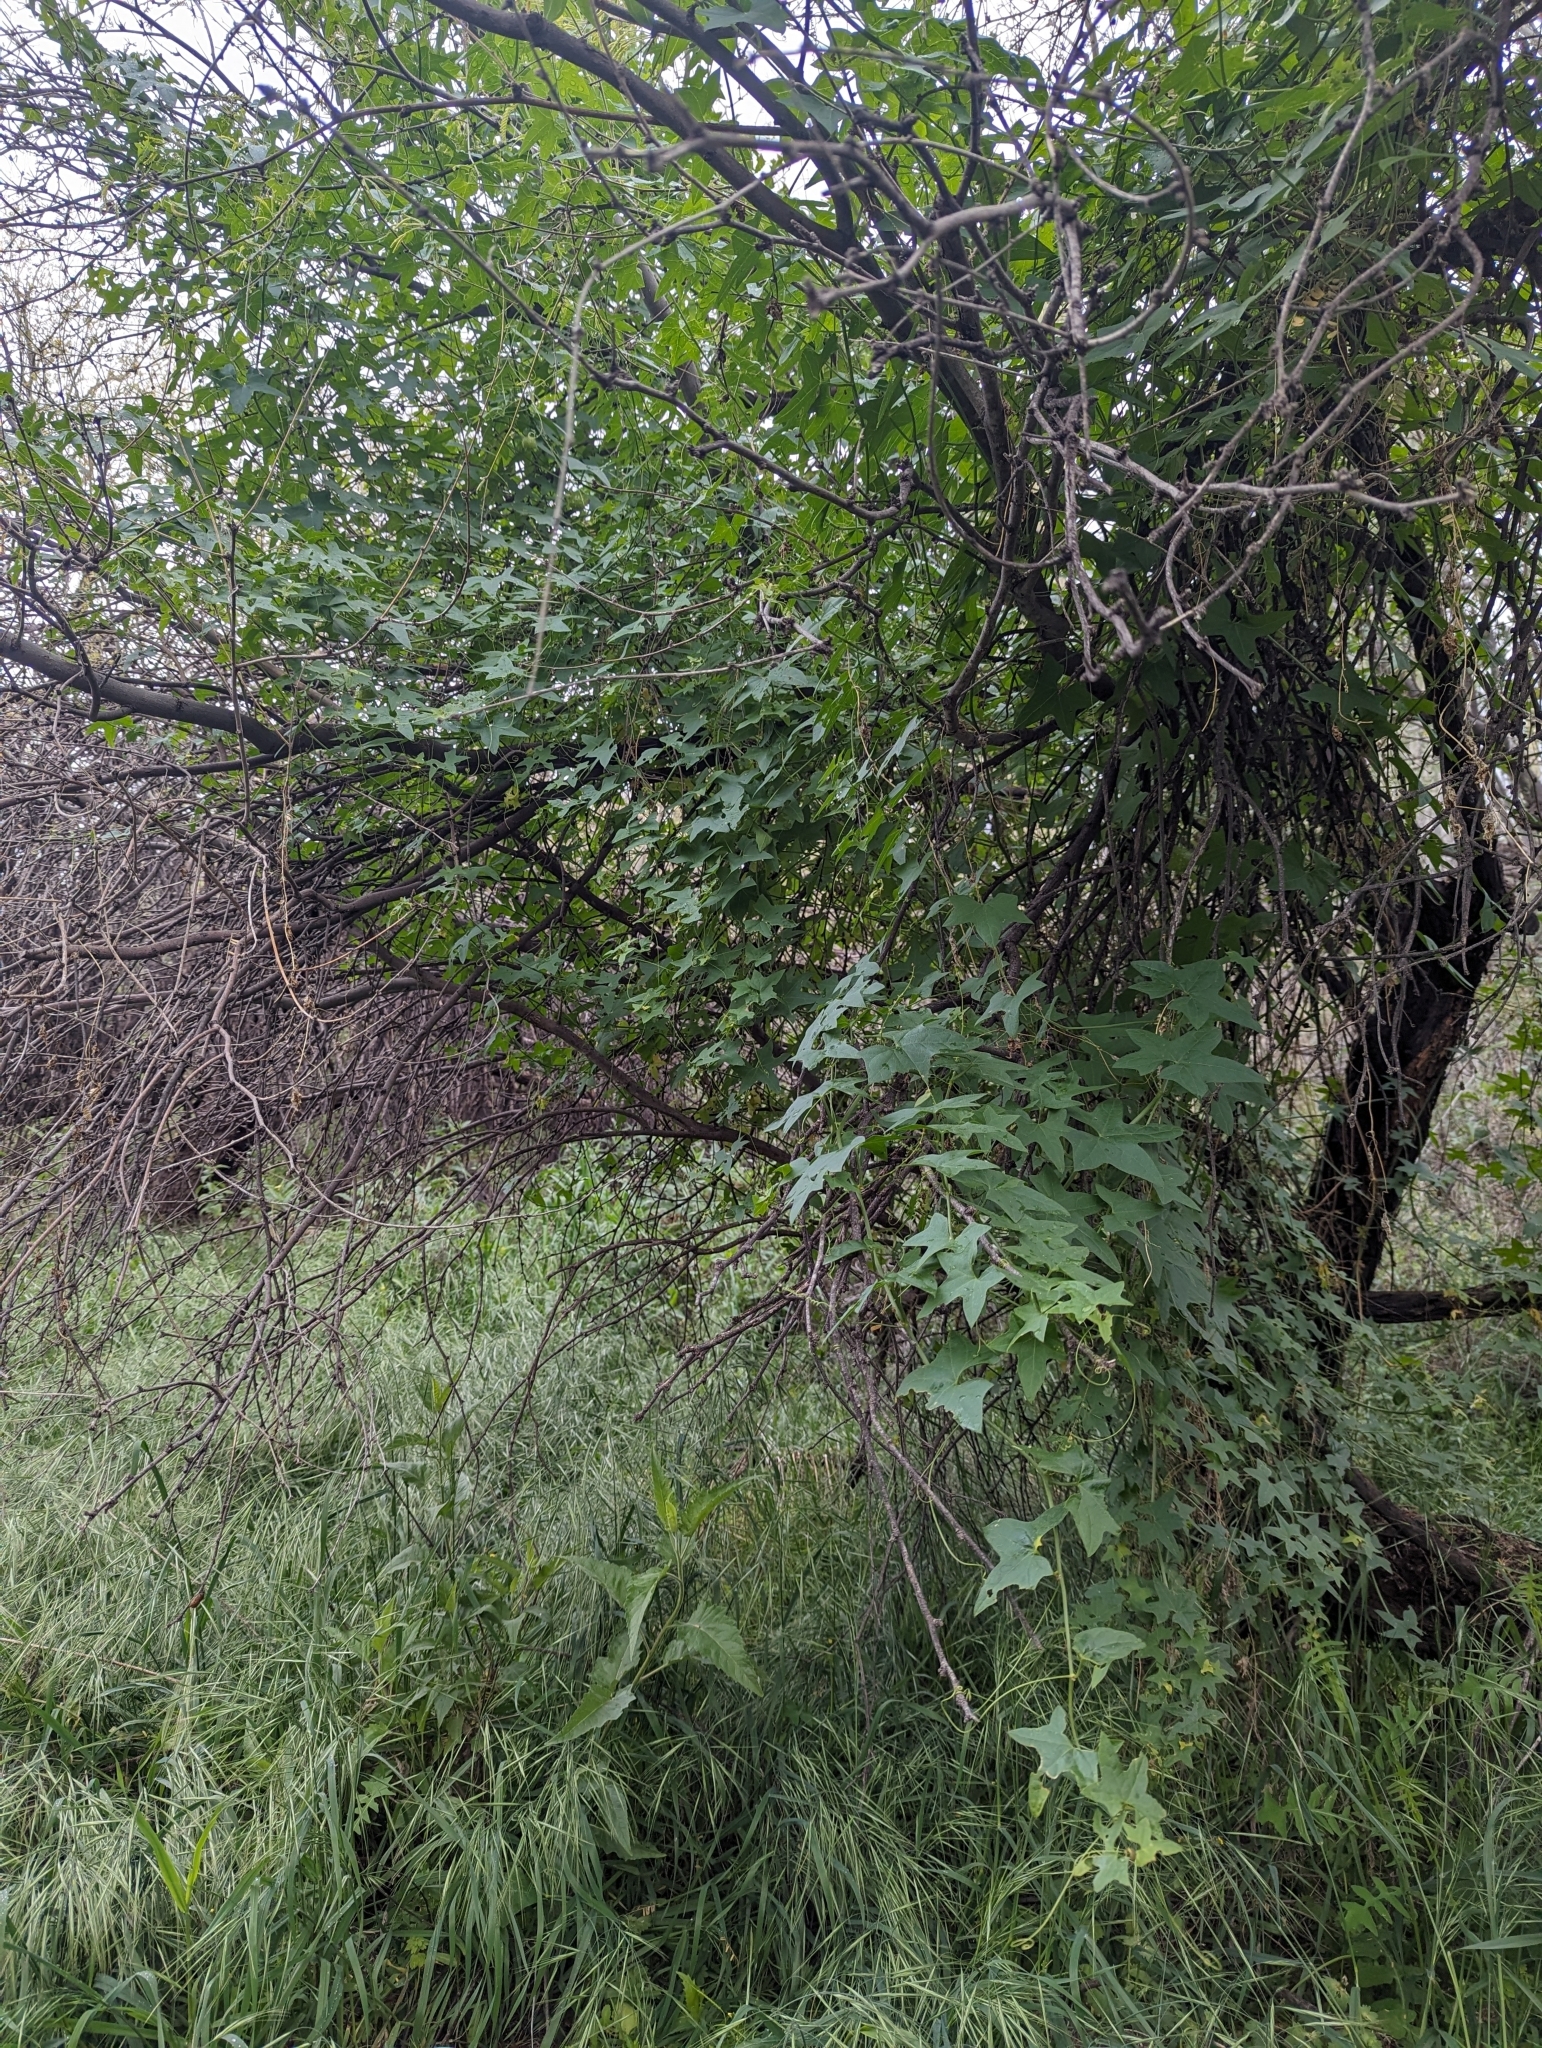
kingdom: Plantae
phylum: Tracheophyta
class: Magnoliopsida
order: Cucurbitales
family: Cucurbitaceae
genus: Marah
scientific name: Marah gilensis
